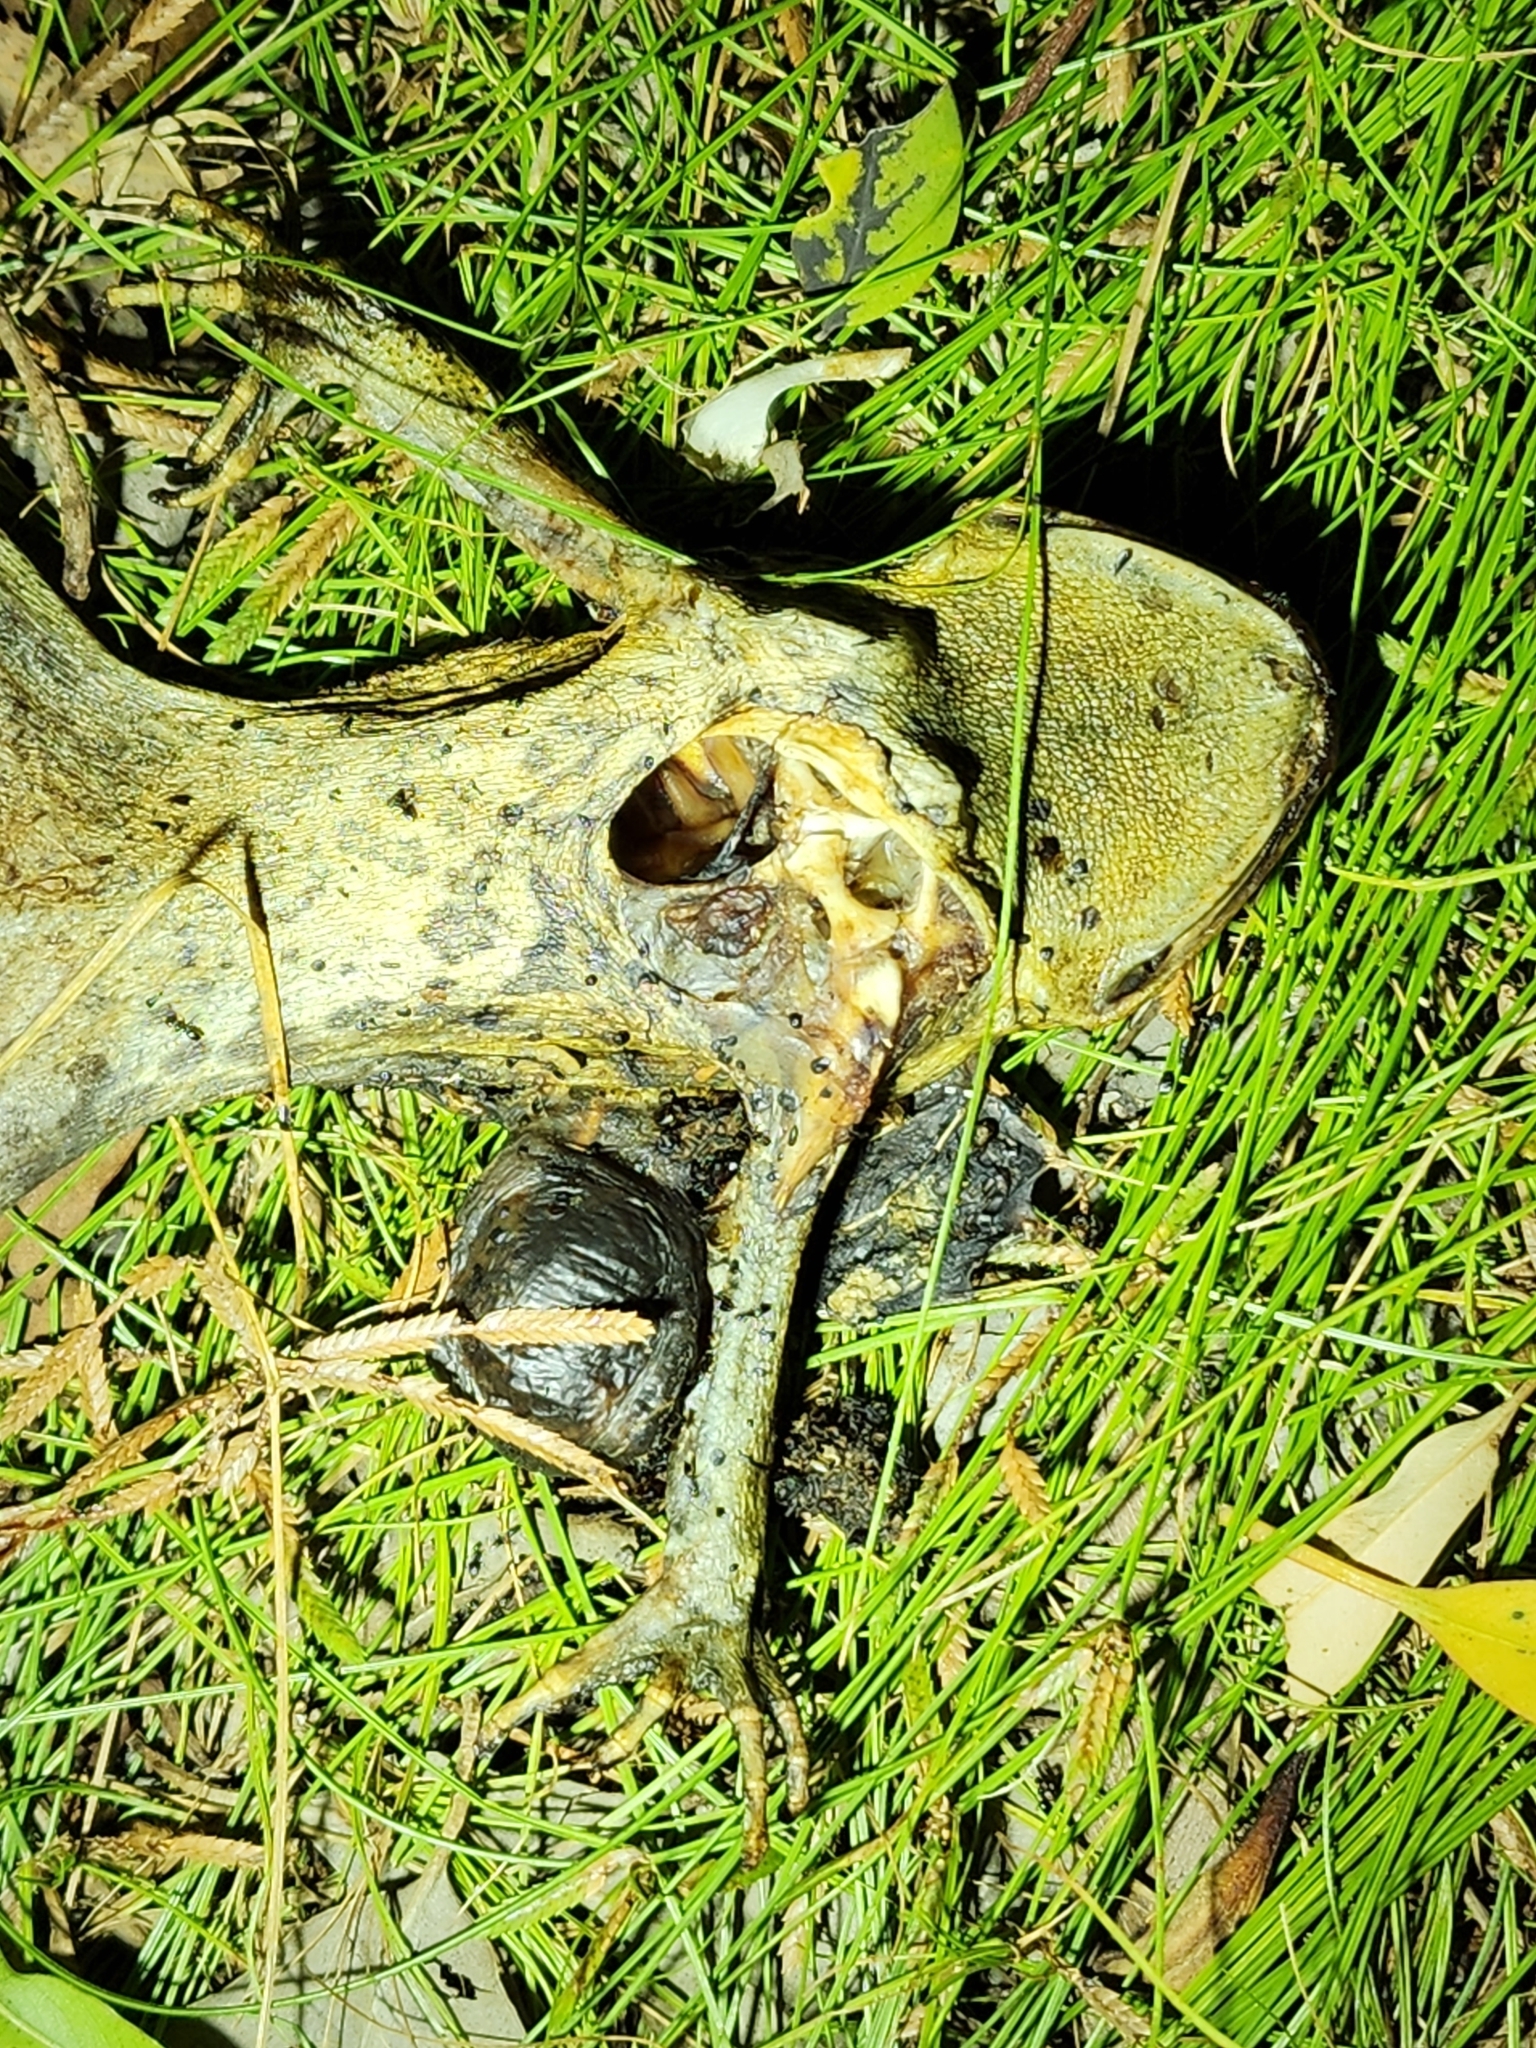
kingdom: Animalia
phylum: Chordata
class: Amphibia
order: Anura
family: Bufonidae
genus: Rhinella
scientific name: Rhinella marina
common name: Cane toad
